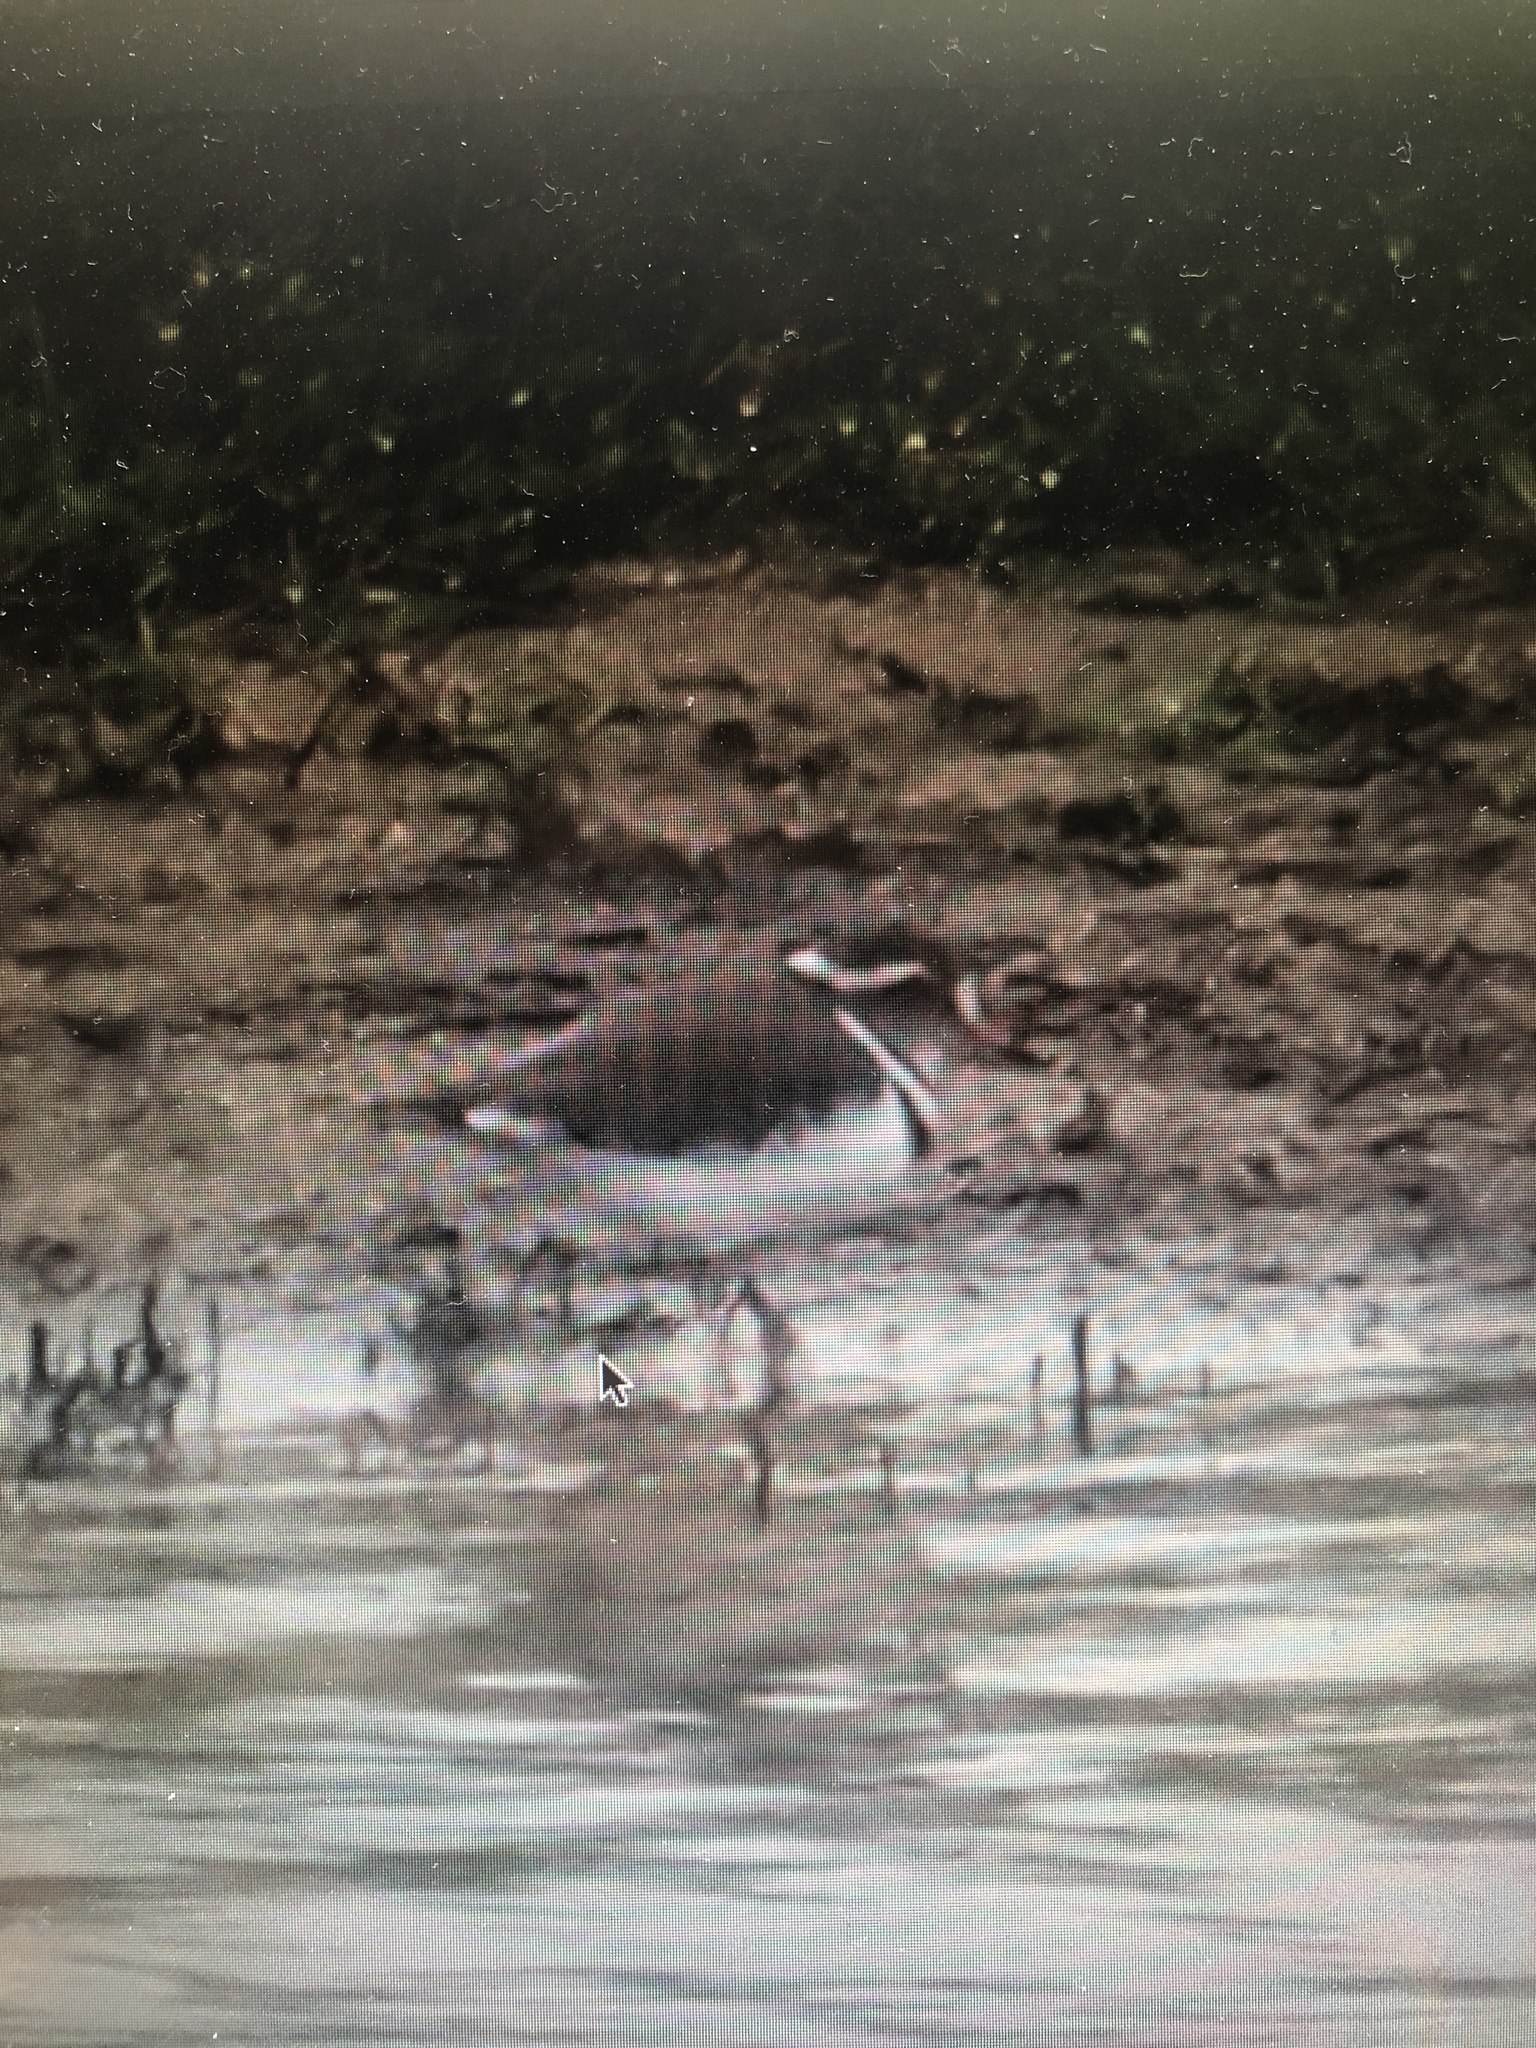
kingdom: Animalia
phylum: Chordata
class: Aves
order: Charadriiformes
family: Charadriidae
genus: Charadrius
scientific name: Charadrius tricollaris
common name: Three-banded plover
